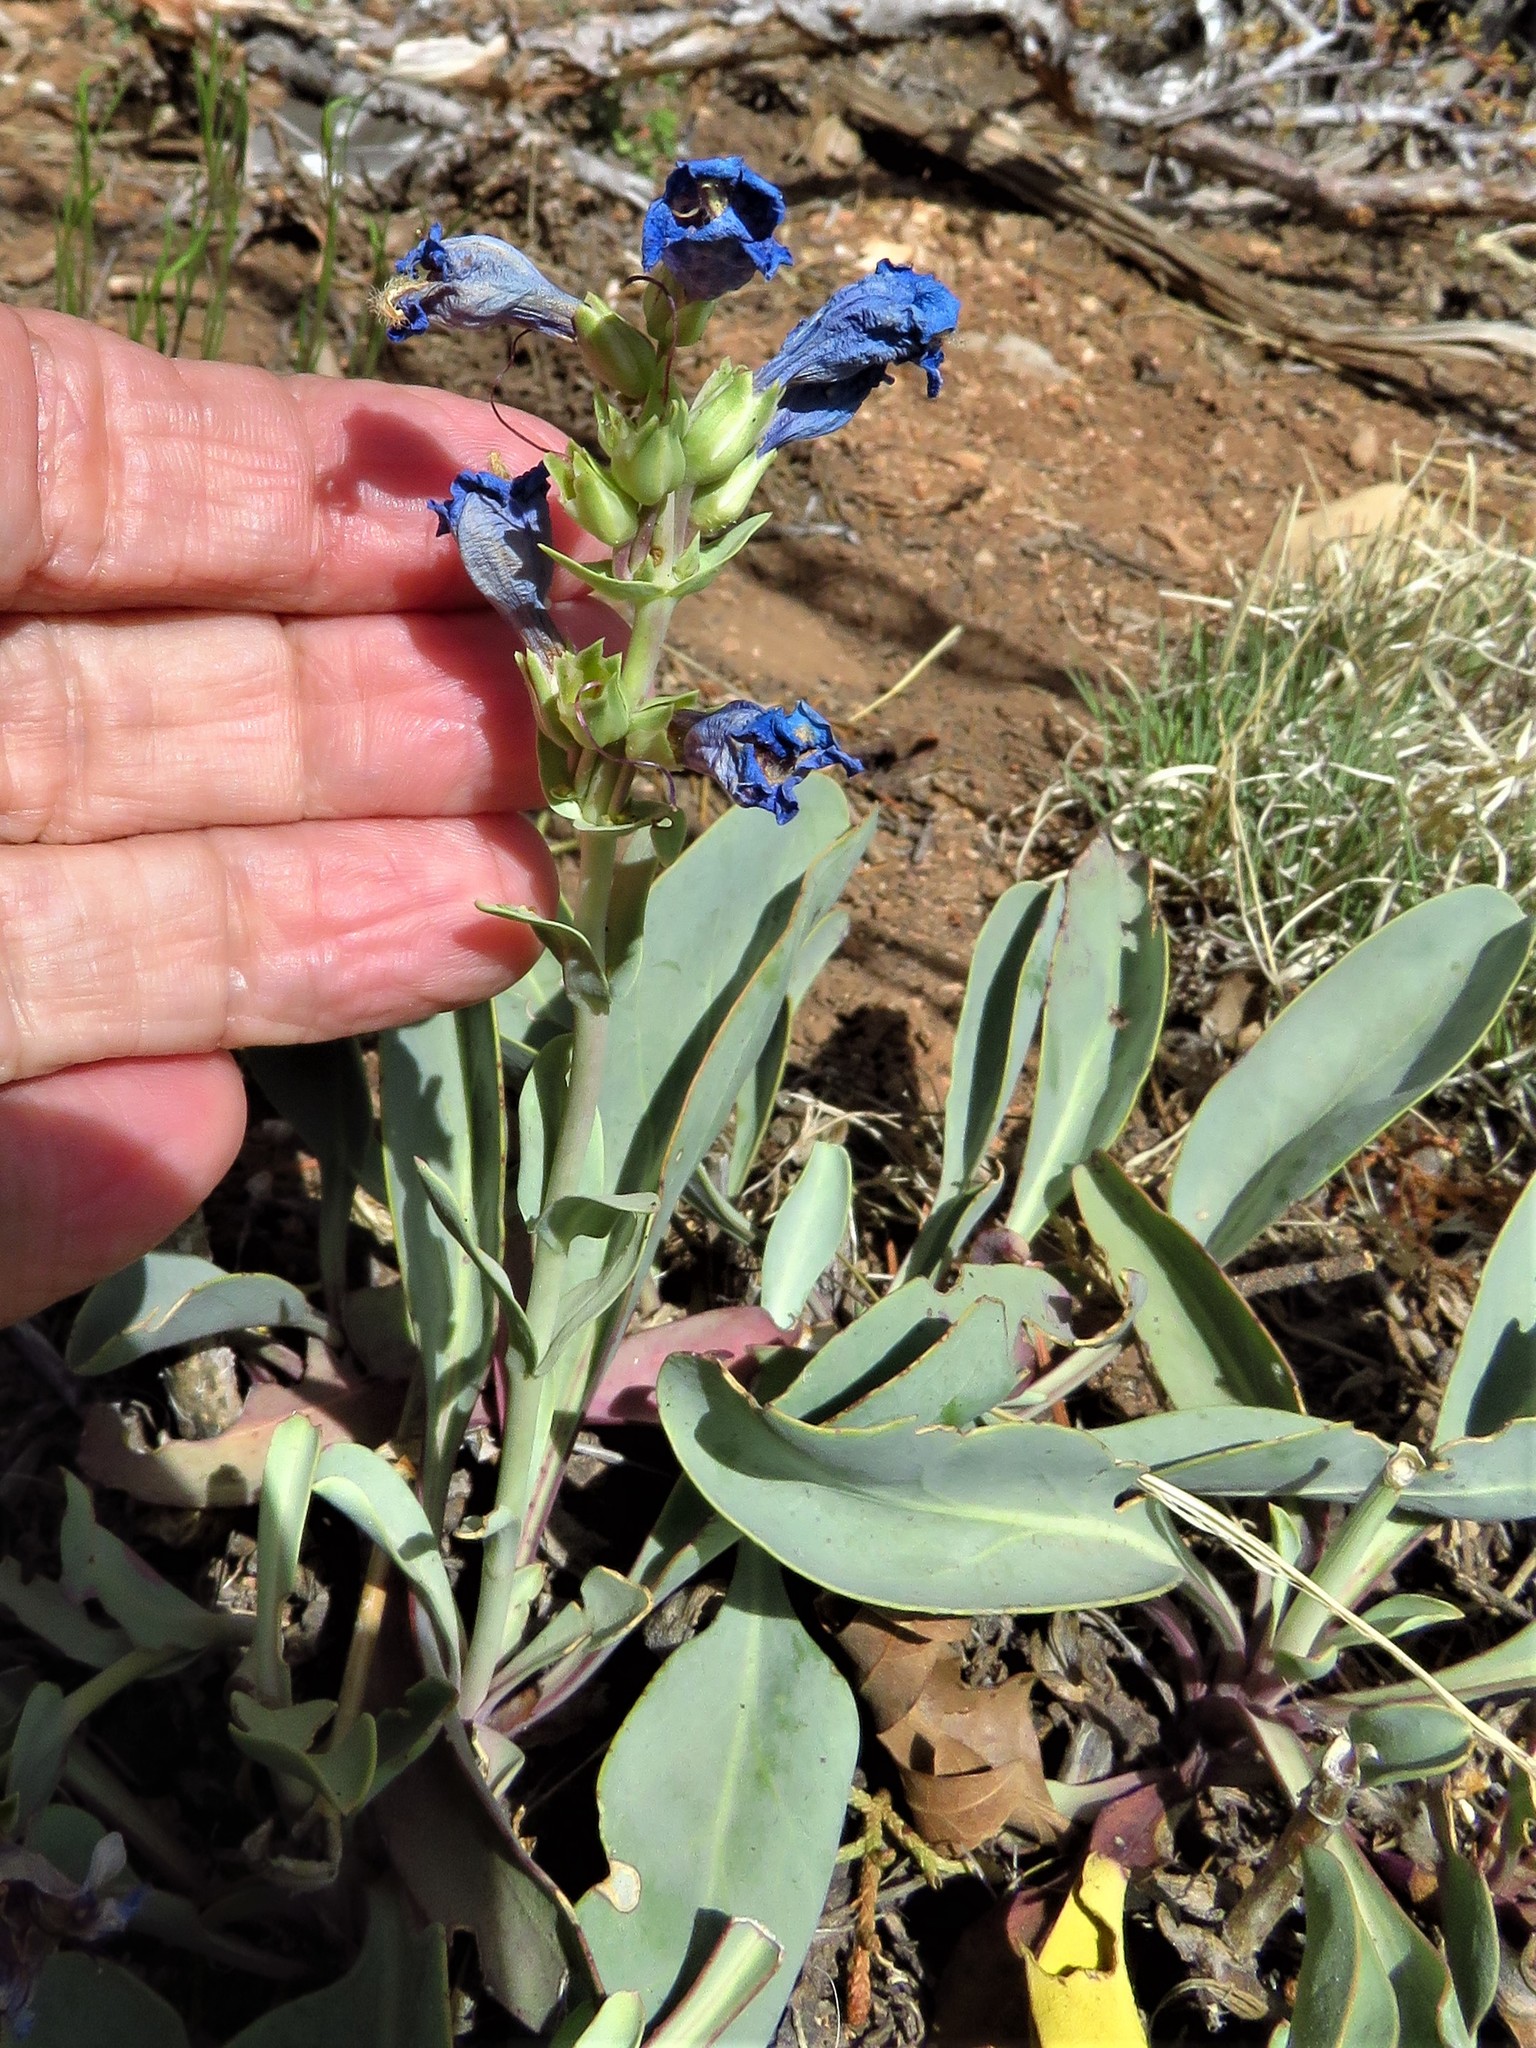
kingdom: Plantae
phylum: Tracheophyta
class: Magnoliopsida
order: Lamiales
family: Plantaginaceae
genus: Penstemon
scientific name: Penstemon pachyphyllus
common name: Thick-leaf penstemon
